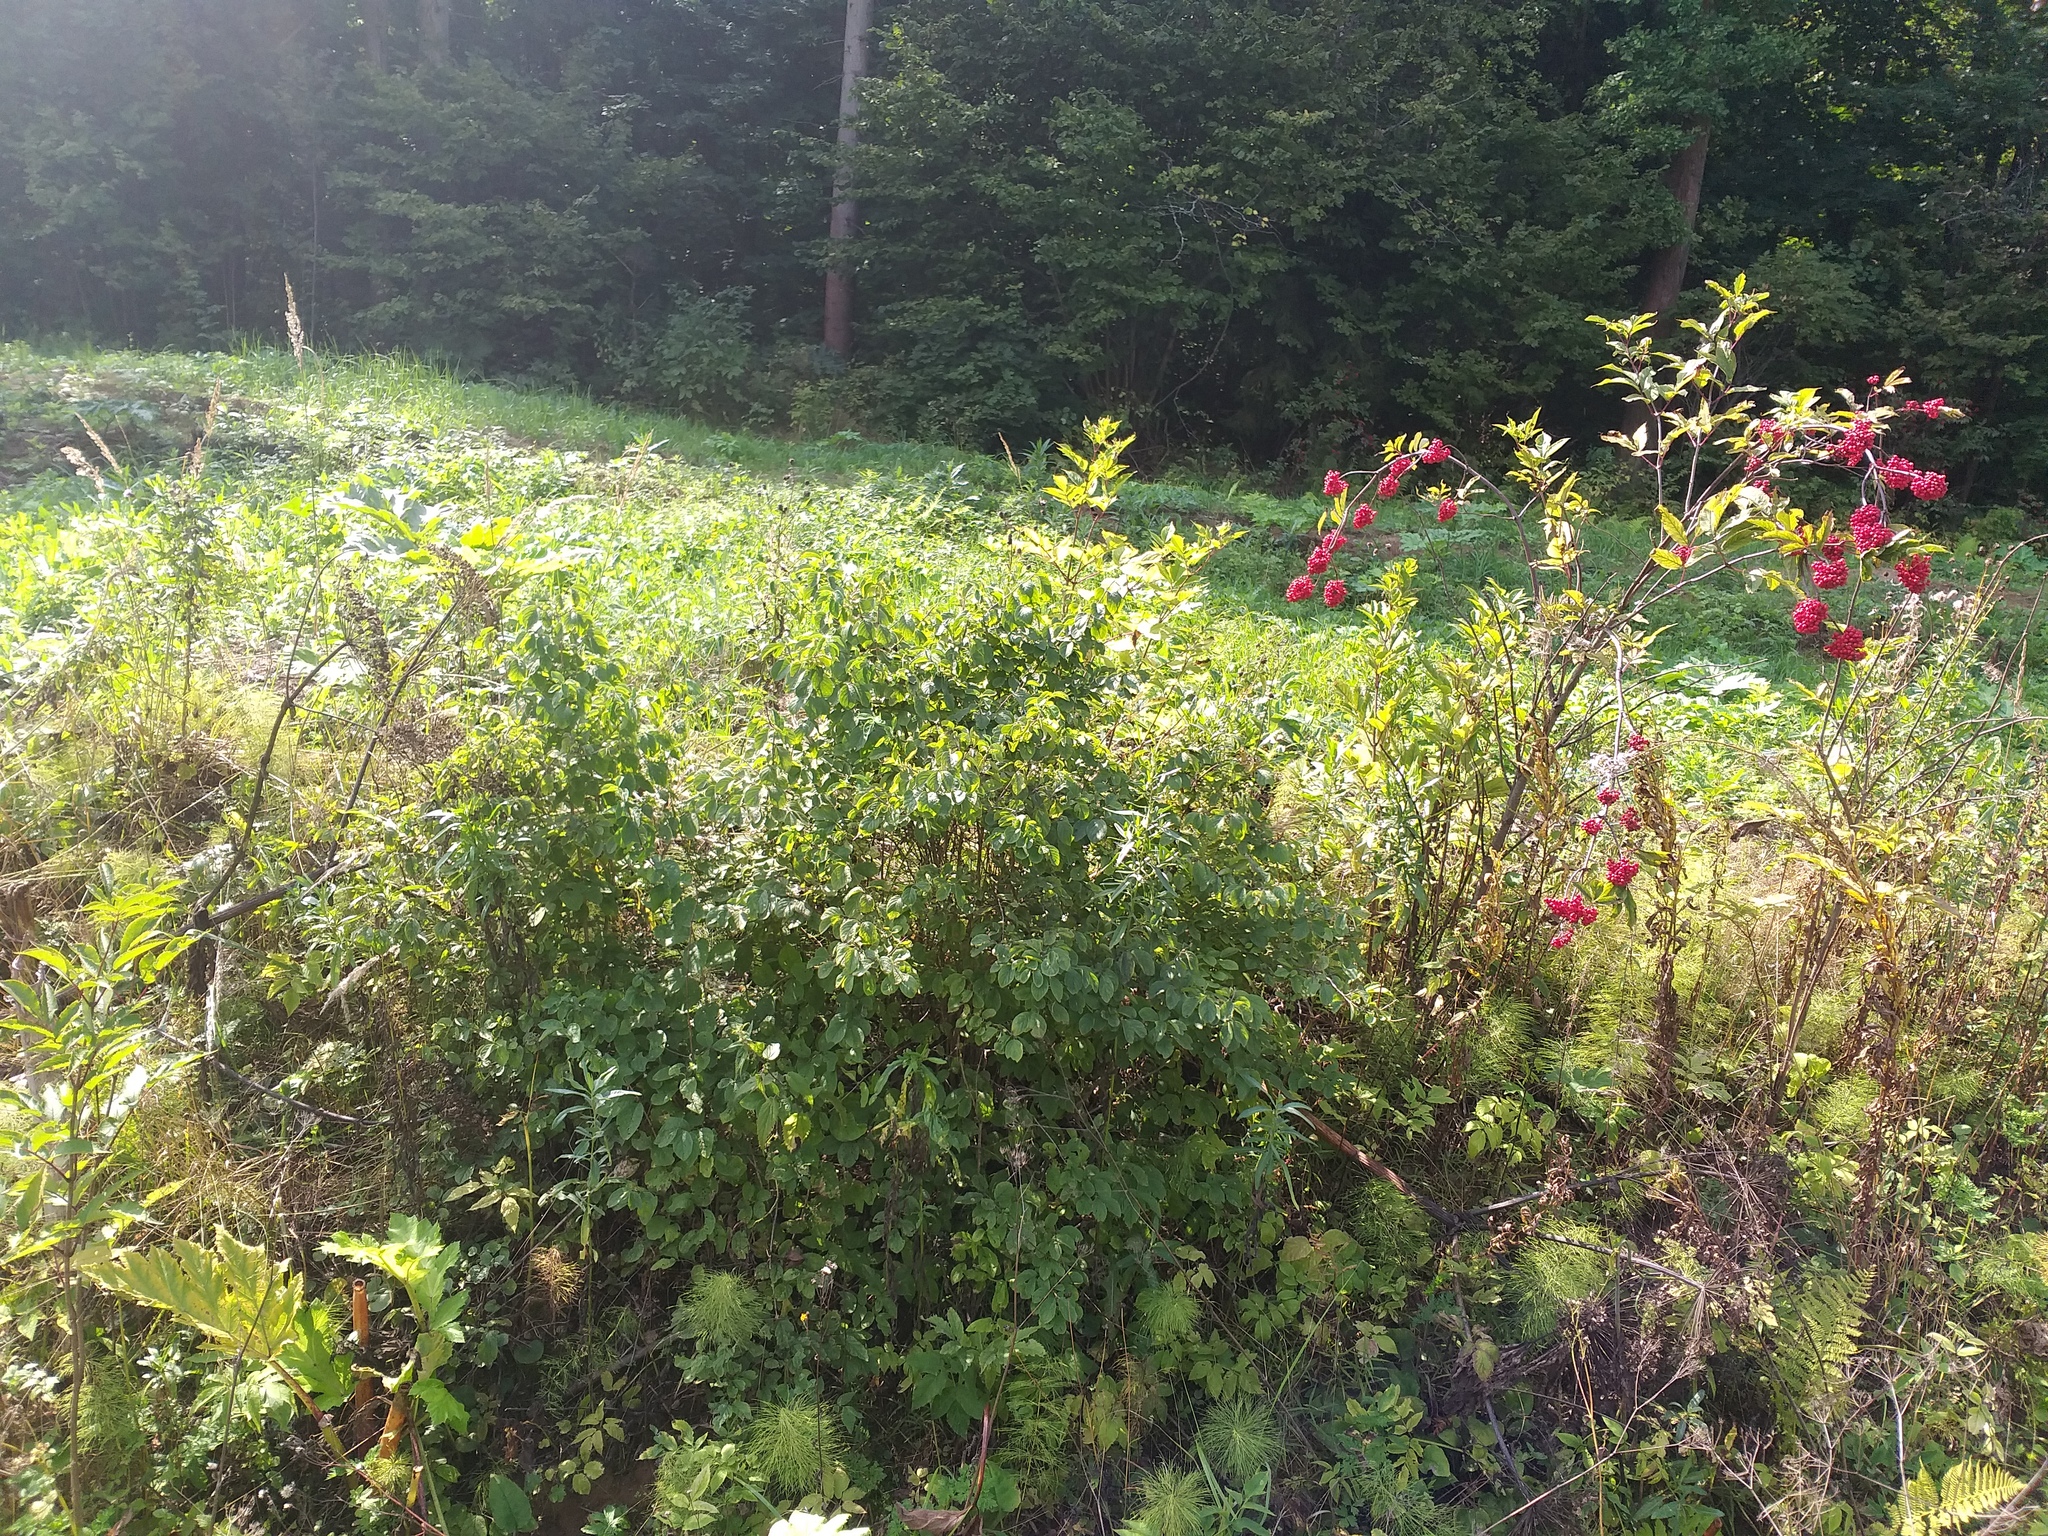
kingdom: Plantae
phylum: Tracheophyta
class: Magnoliopsida
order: Dipsacales
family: Caprifoliaceae
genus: Lonicera
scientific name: Lonicera xylosteum
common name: Fly honeysuckle
